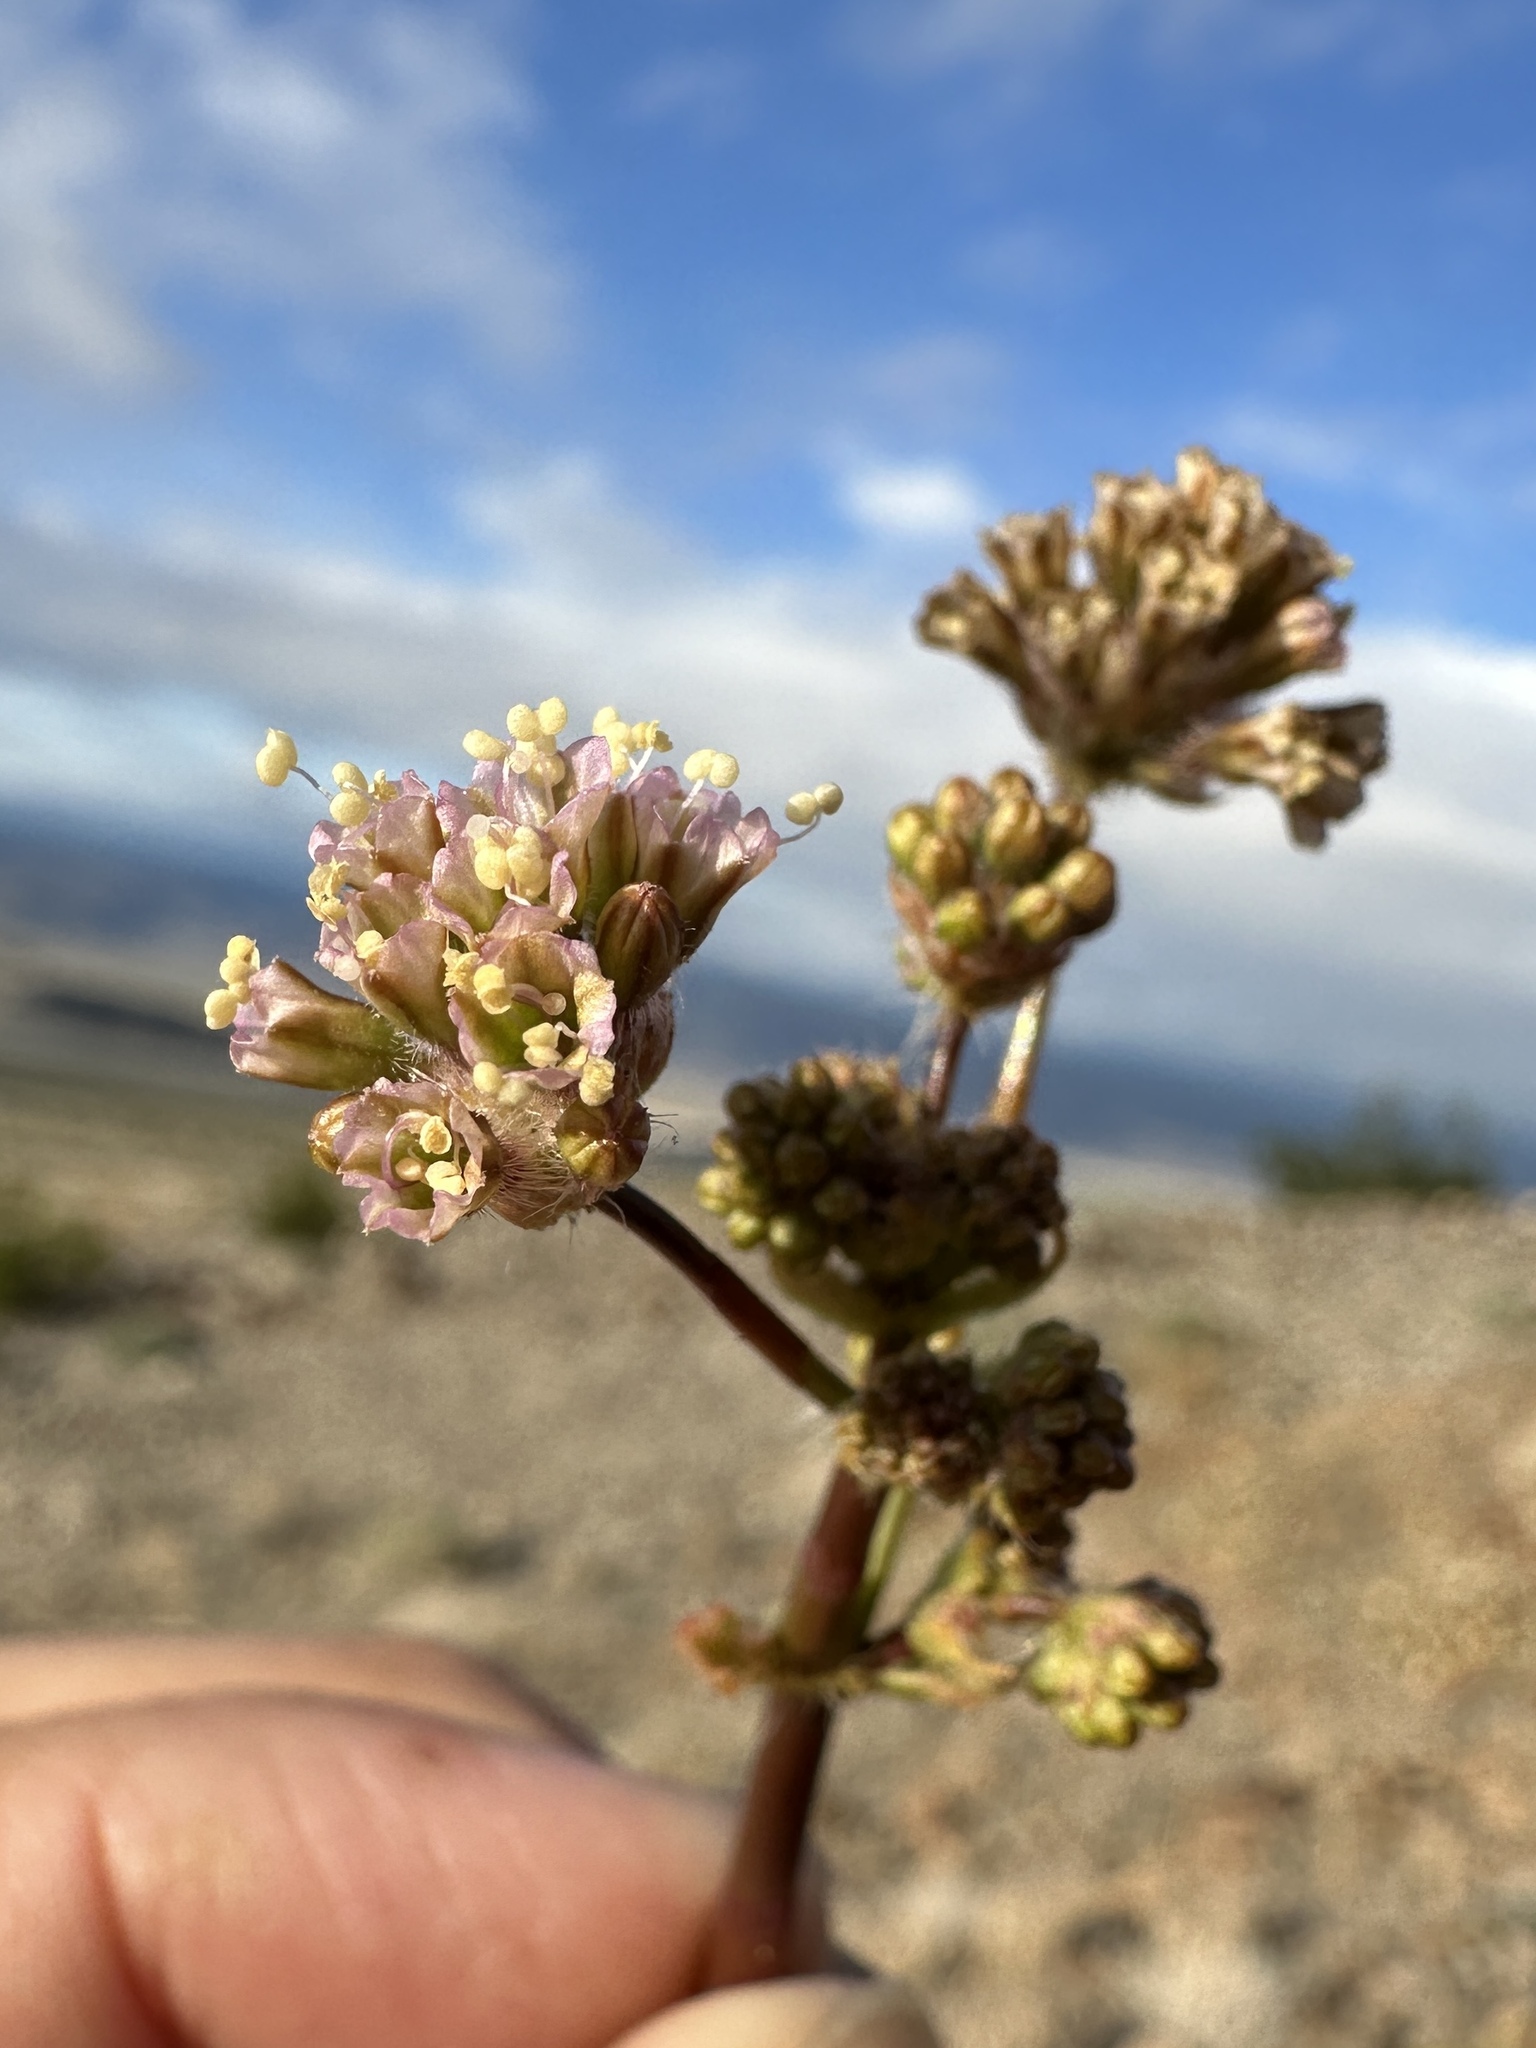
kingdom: Plantae
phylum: Tracheophyta
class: Magnoliopsida
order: Caryophyllales
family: Nyctaginaceae
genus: Anulocaulis
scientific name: Anulocaulis annulatus
